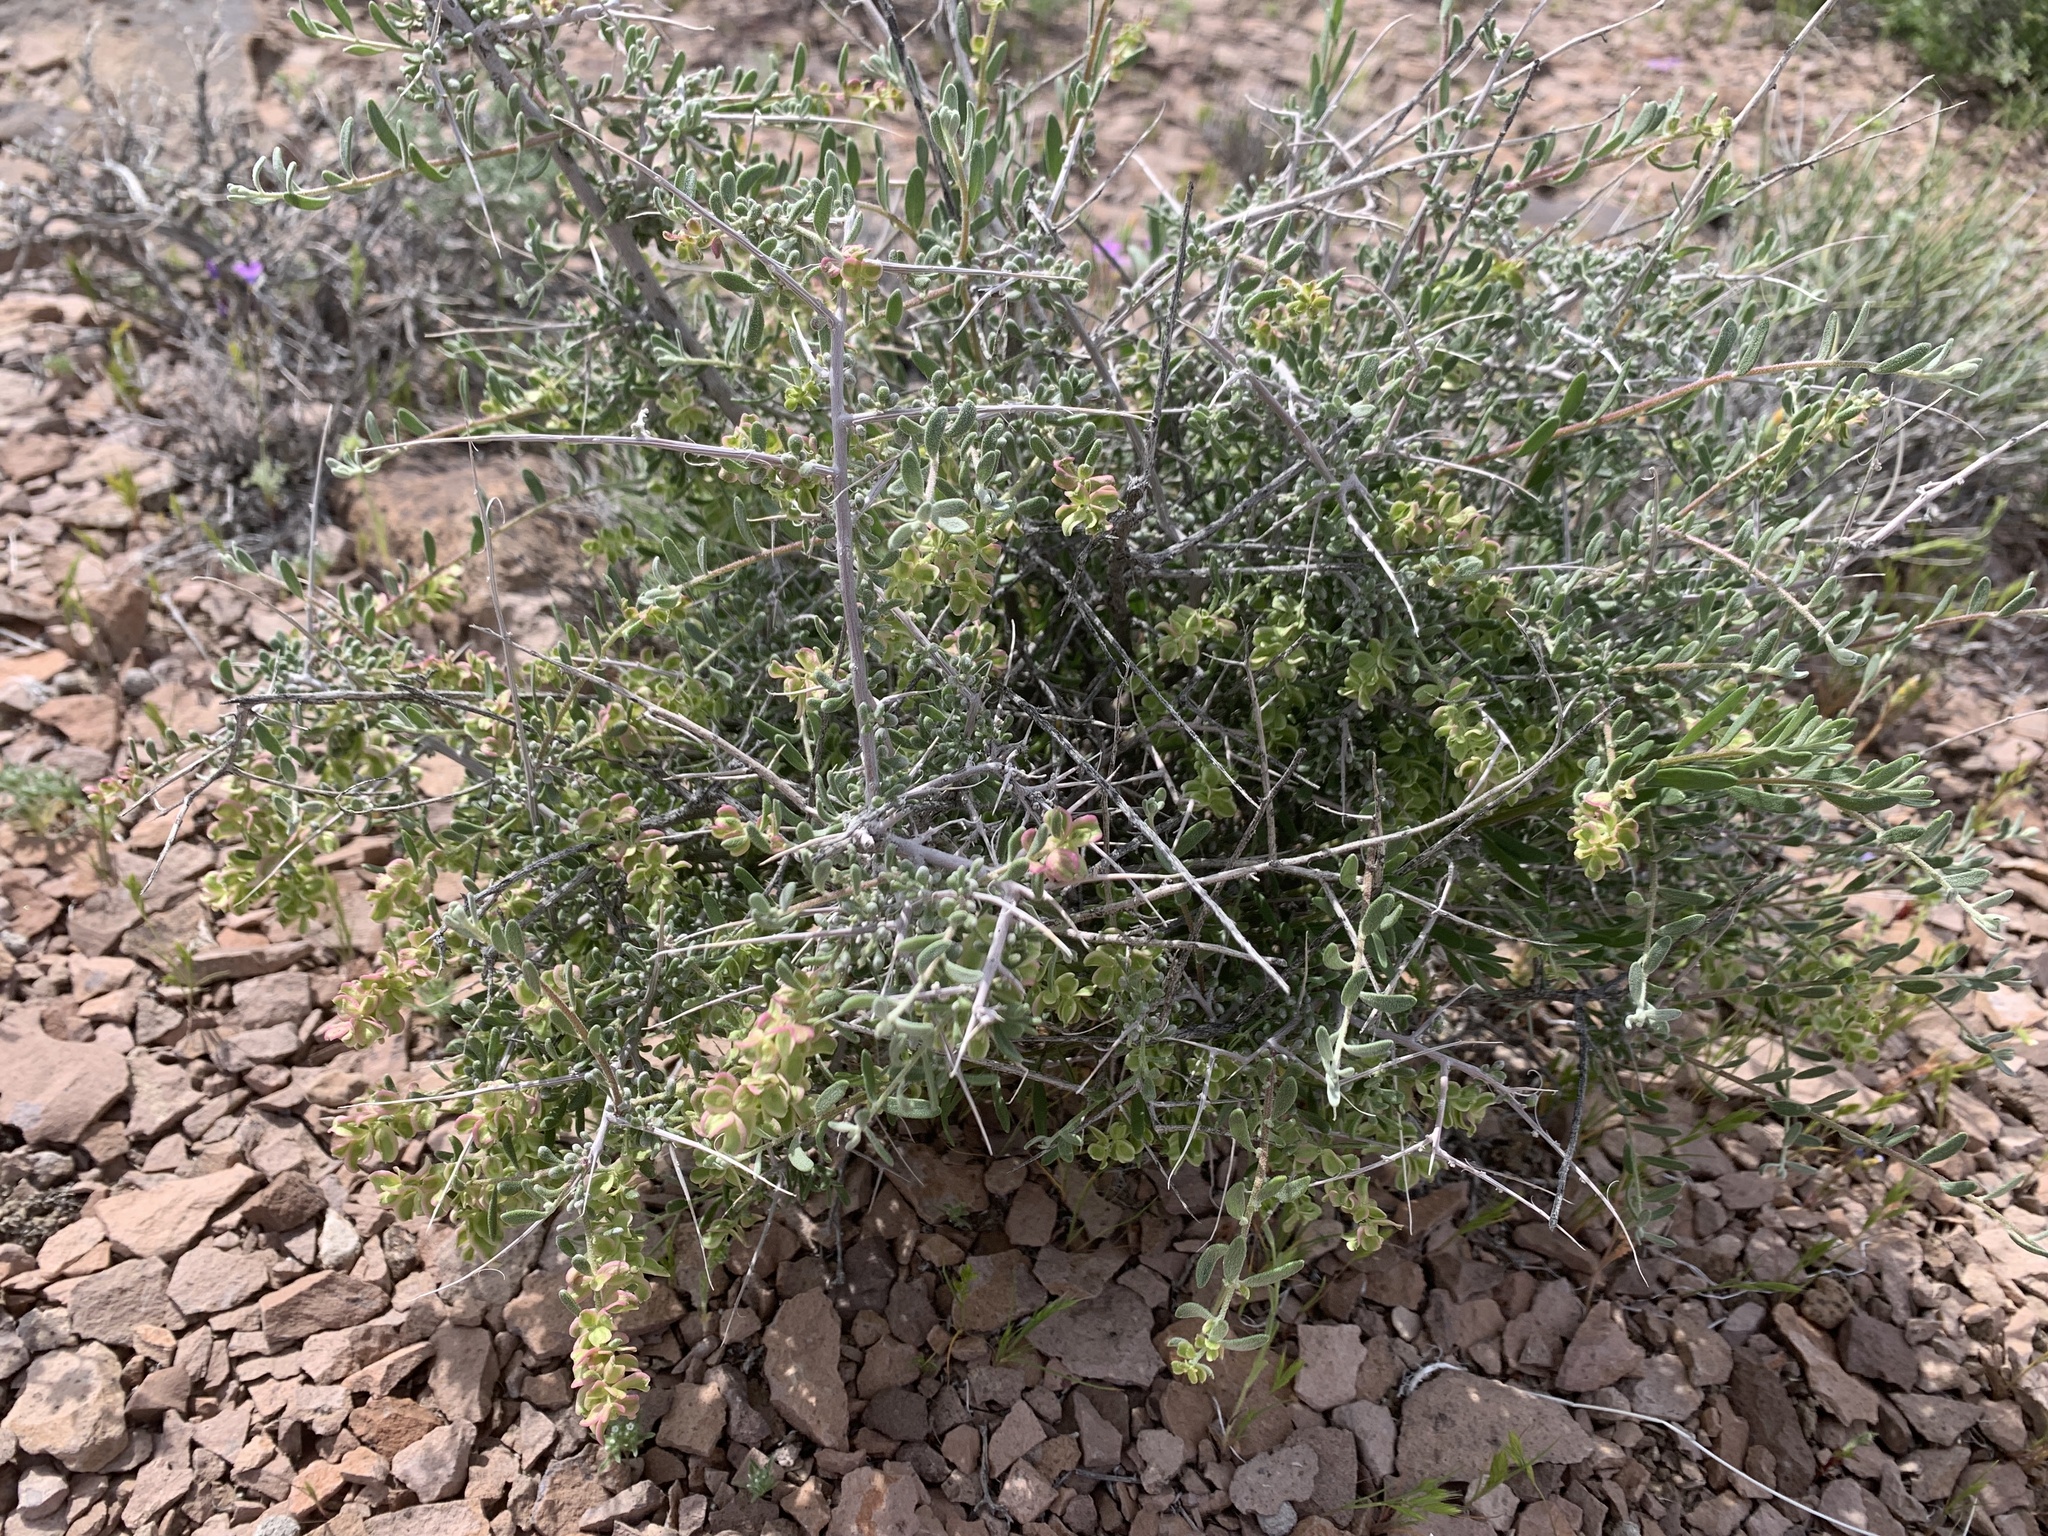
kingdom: Plantae
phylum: Tracheophyta
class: Magnoliopsida
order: Caryophyllales
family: Amaranthaceae
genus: Grayia
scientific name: Grayia spinosa
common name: Spiny hopsage
